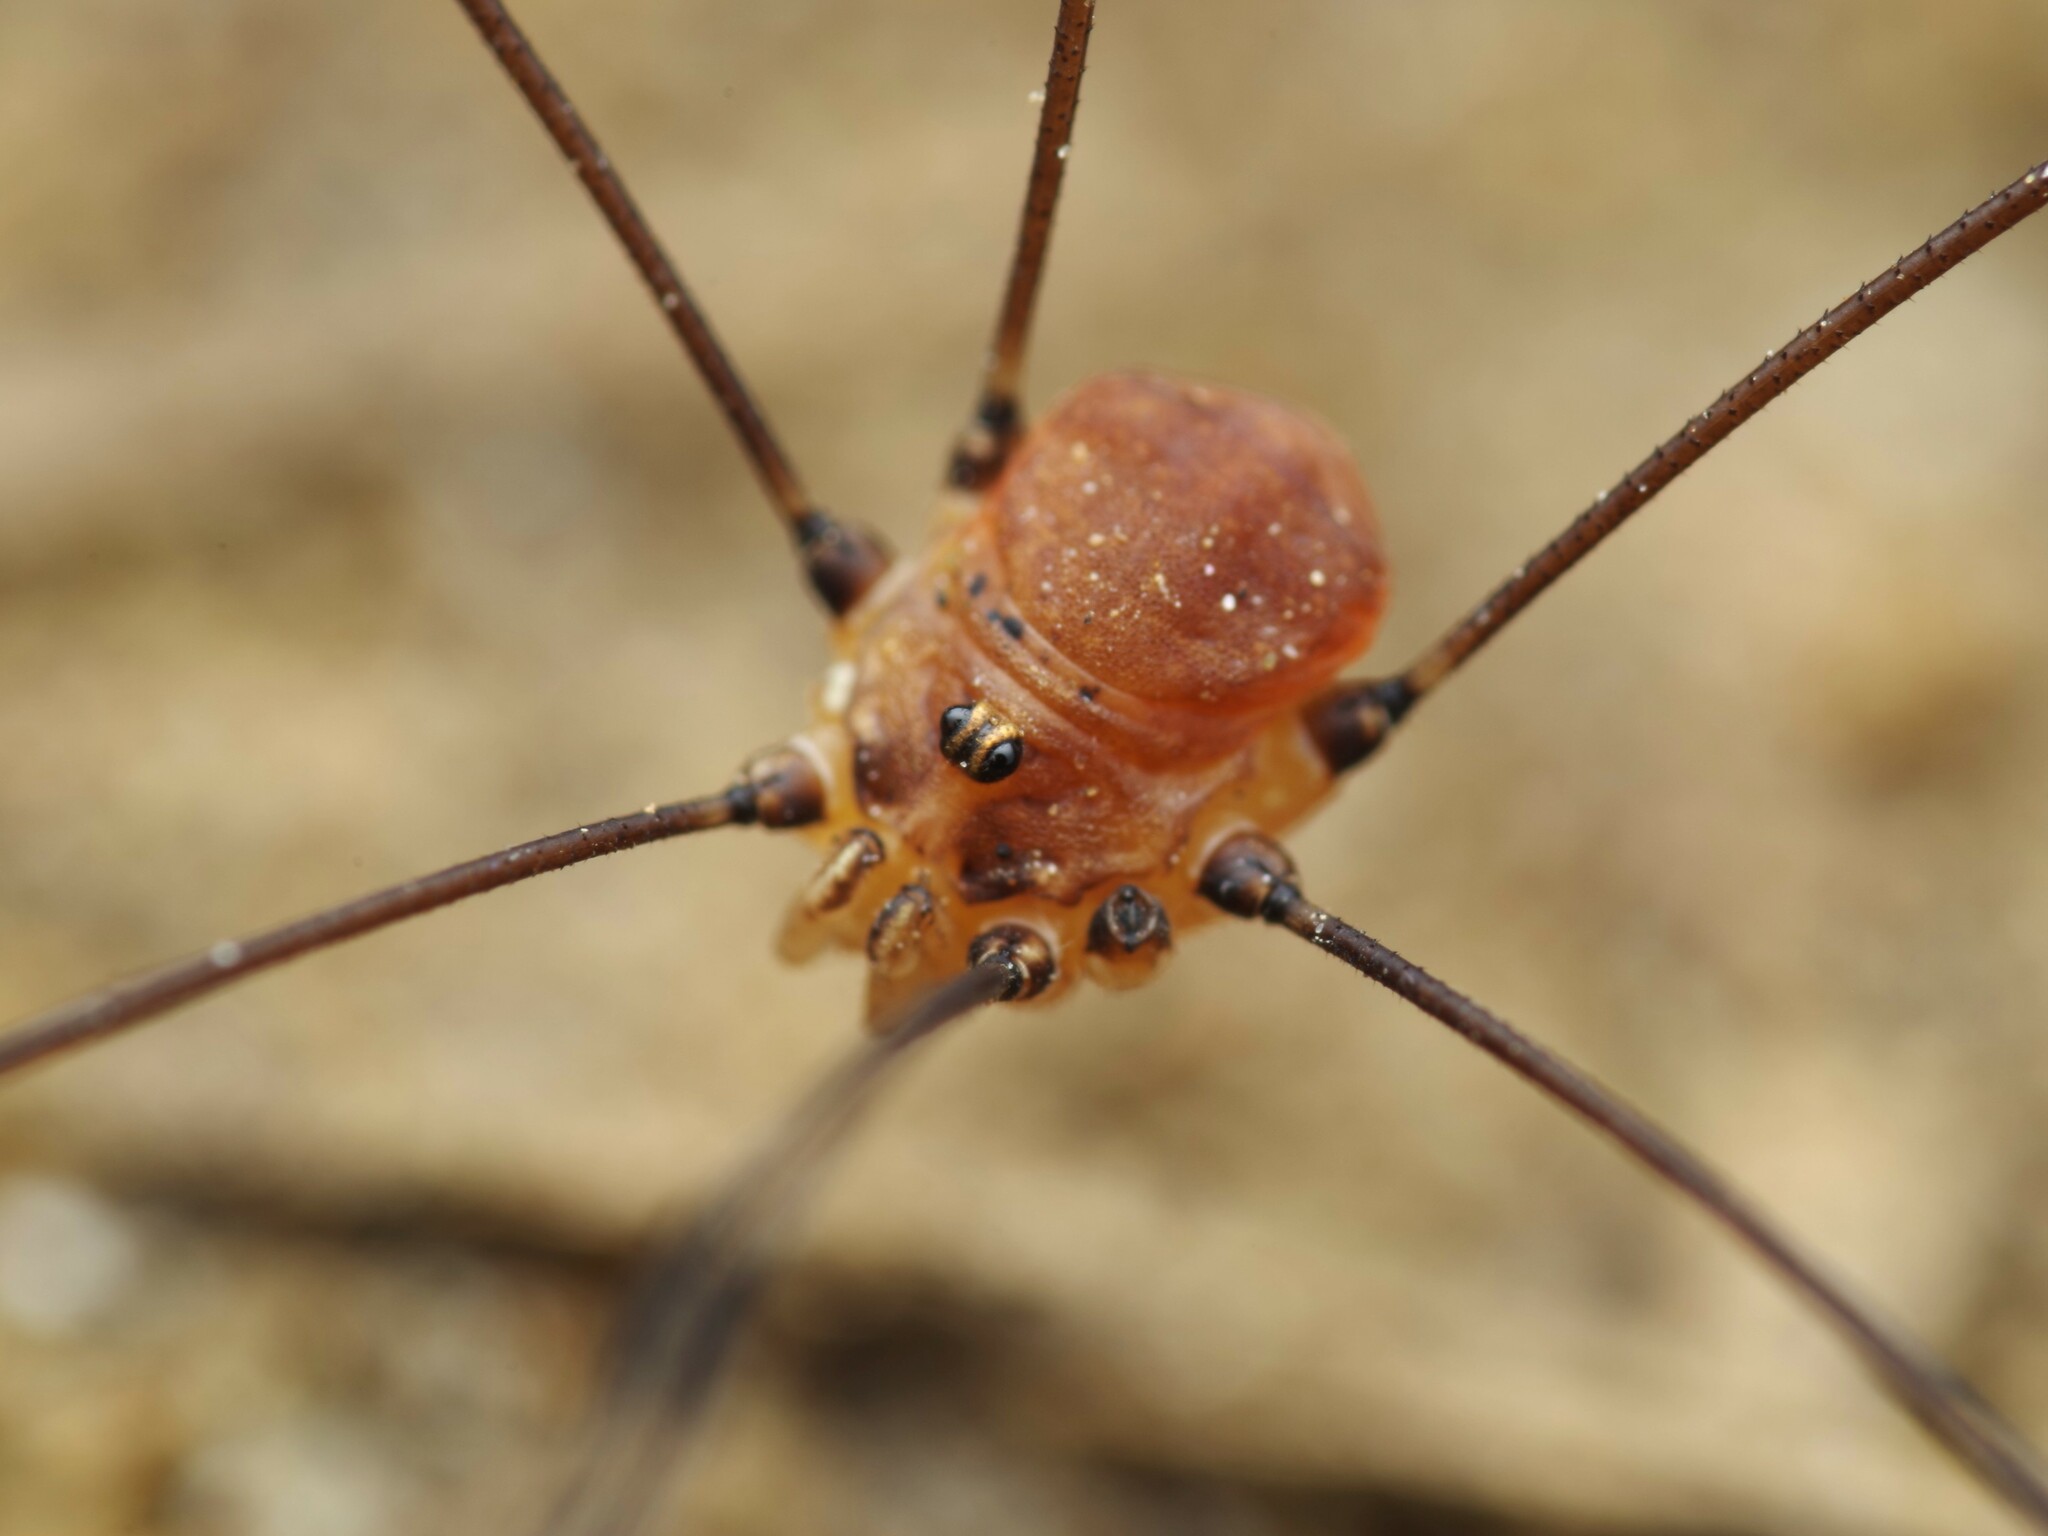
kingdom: Animalia
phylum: Arthropoda
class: Arachnida
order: Opiliones
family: Sclerosomatidae
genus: Leiobunum
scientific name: Leiobunum blackwalli
